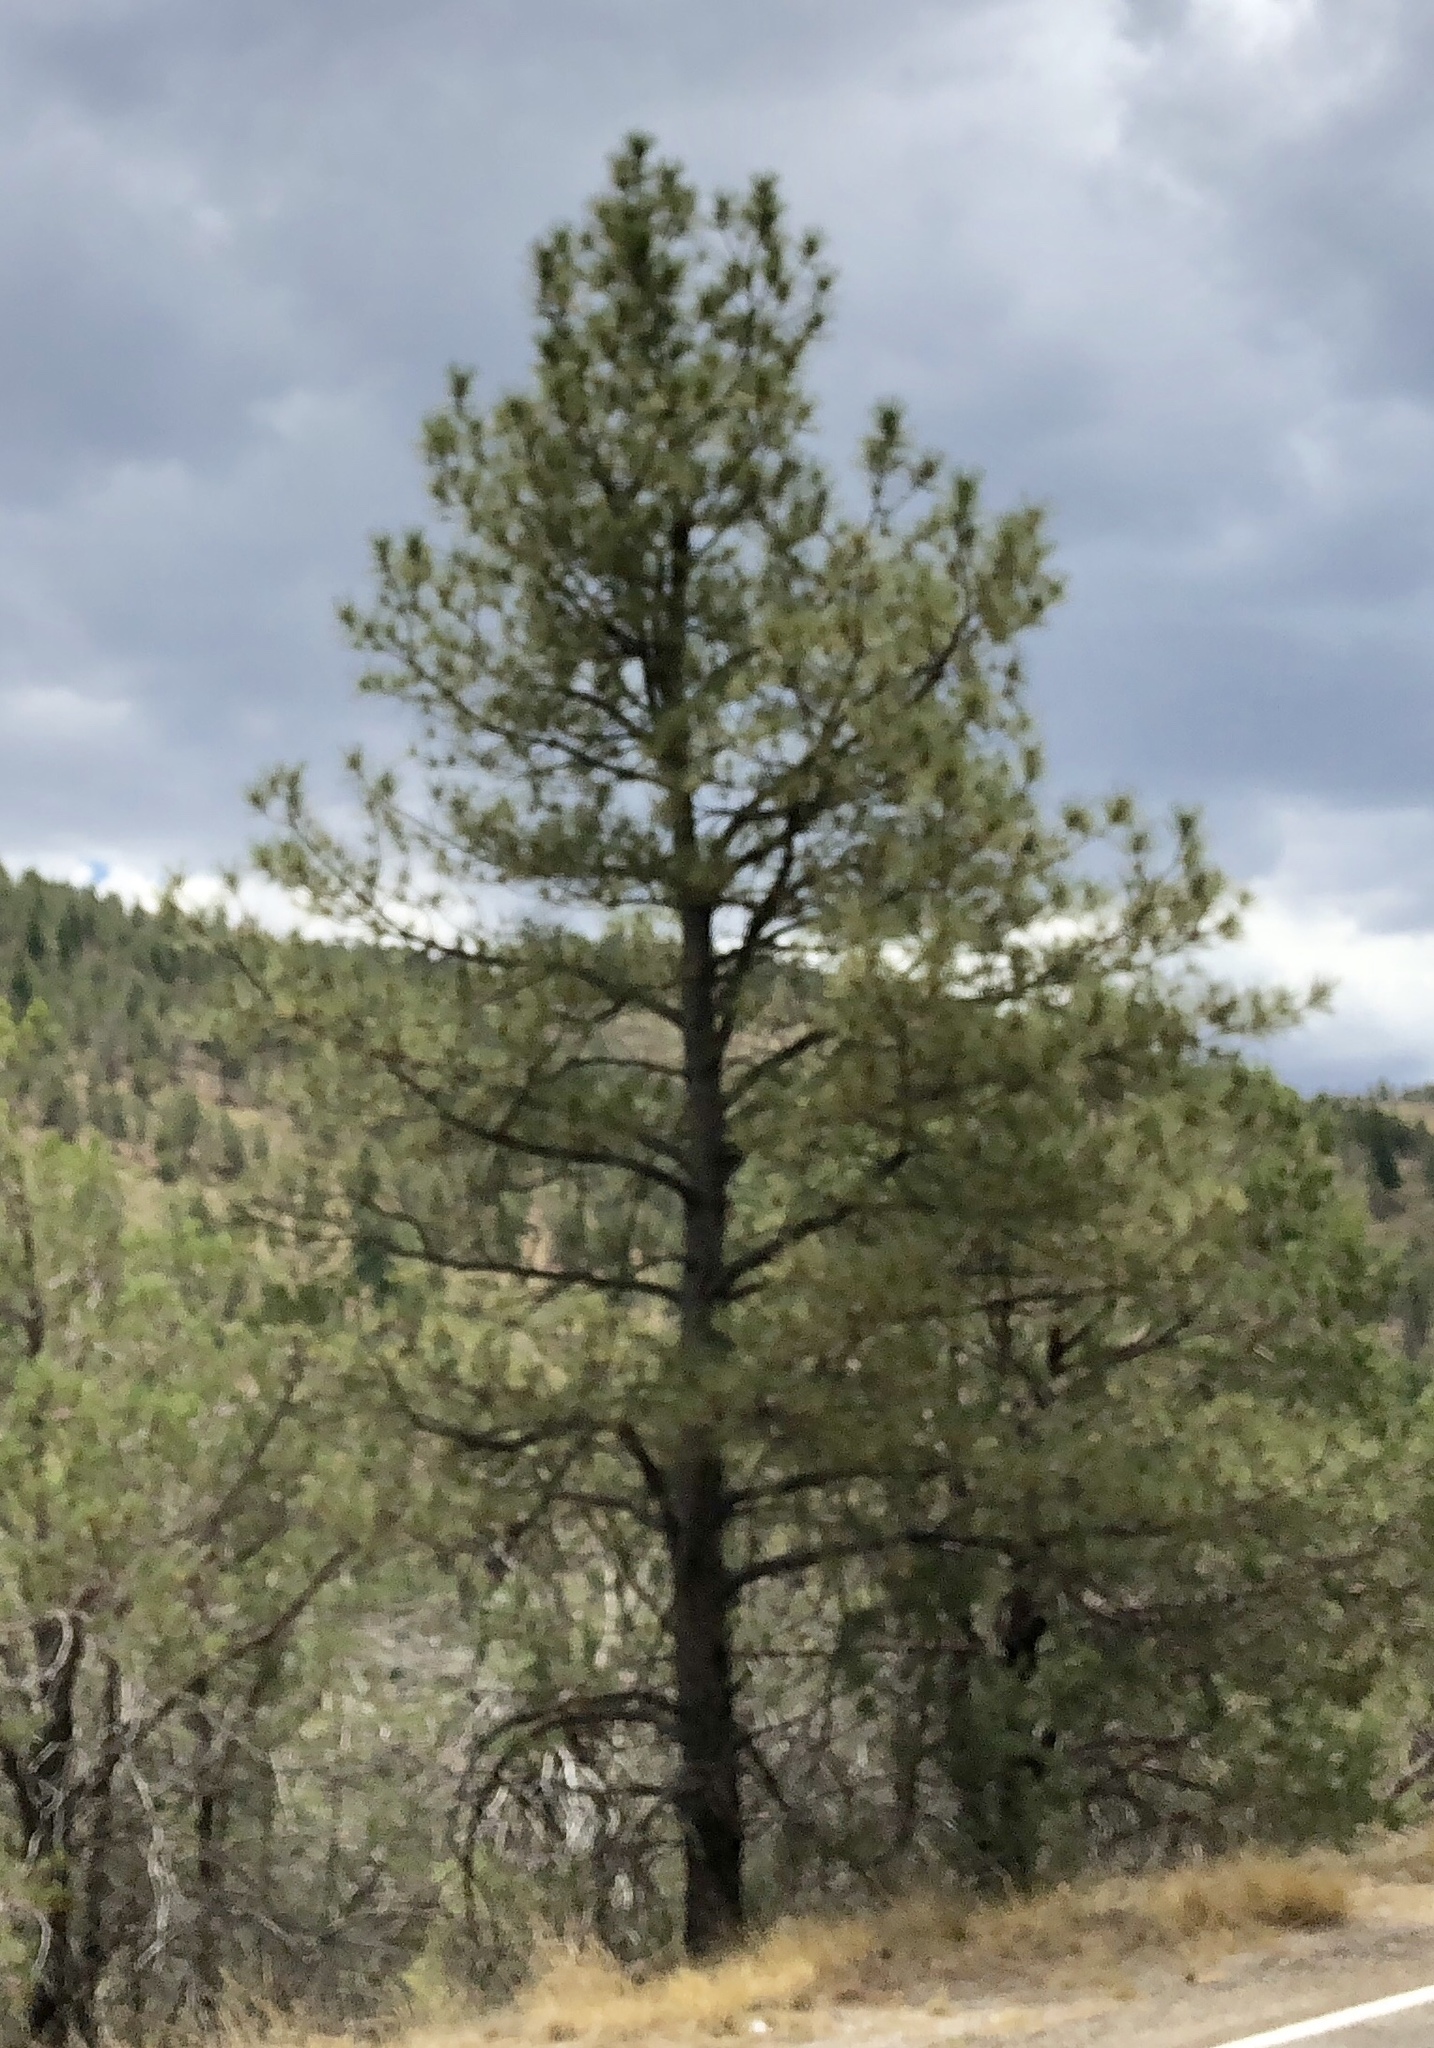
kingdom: Plantae
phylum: Tracheophyta
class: Pinopsida
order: Pinales
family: Pinaceae
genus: Pinus
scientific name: Pinus ponderosa
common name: Western yellow-pine
